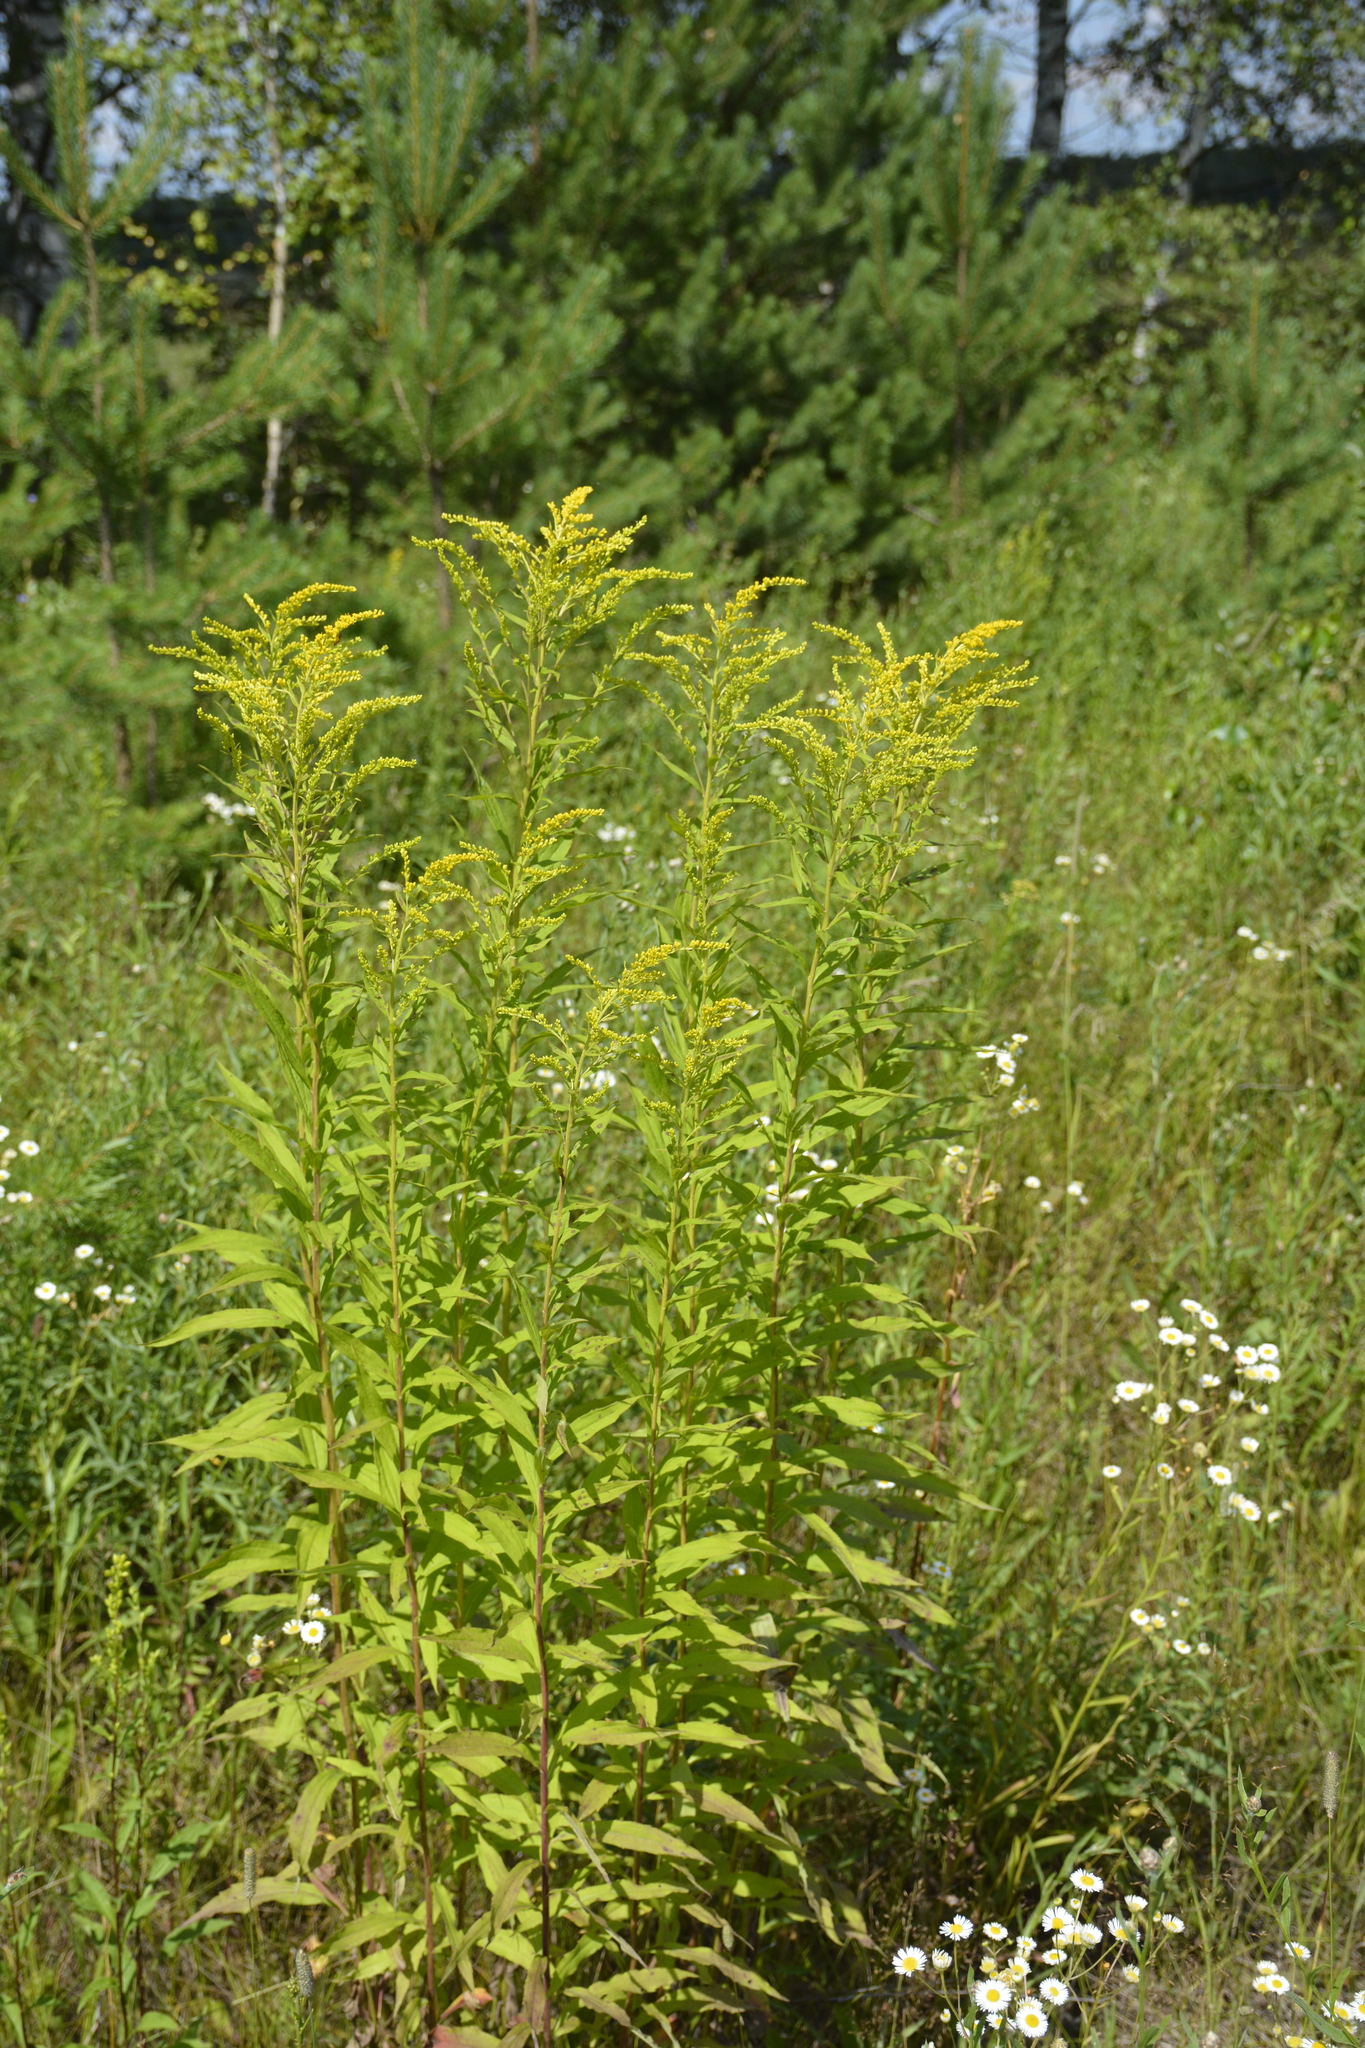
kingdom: Plantae
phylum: Tracheophyta
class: Magnoliopsida
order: Asterales
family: Asteraceae
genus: Solidago
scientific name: Solidago canadensis
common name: Canada goldenrod
